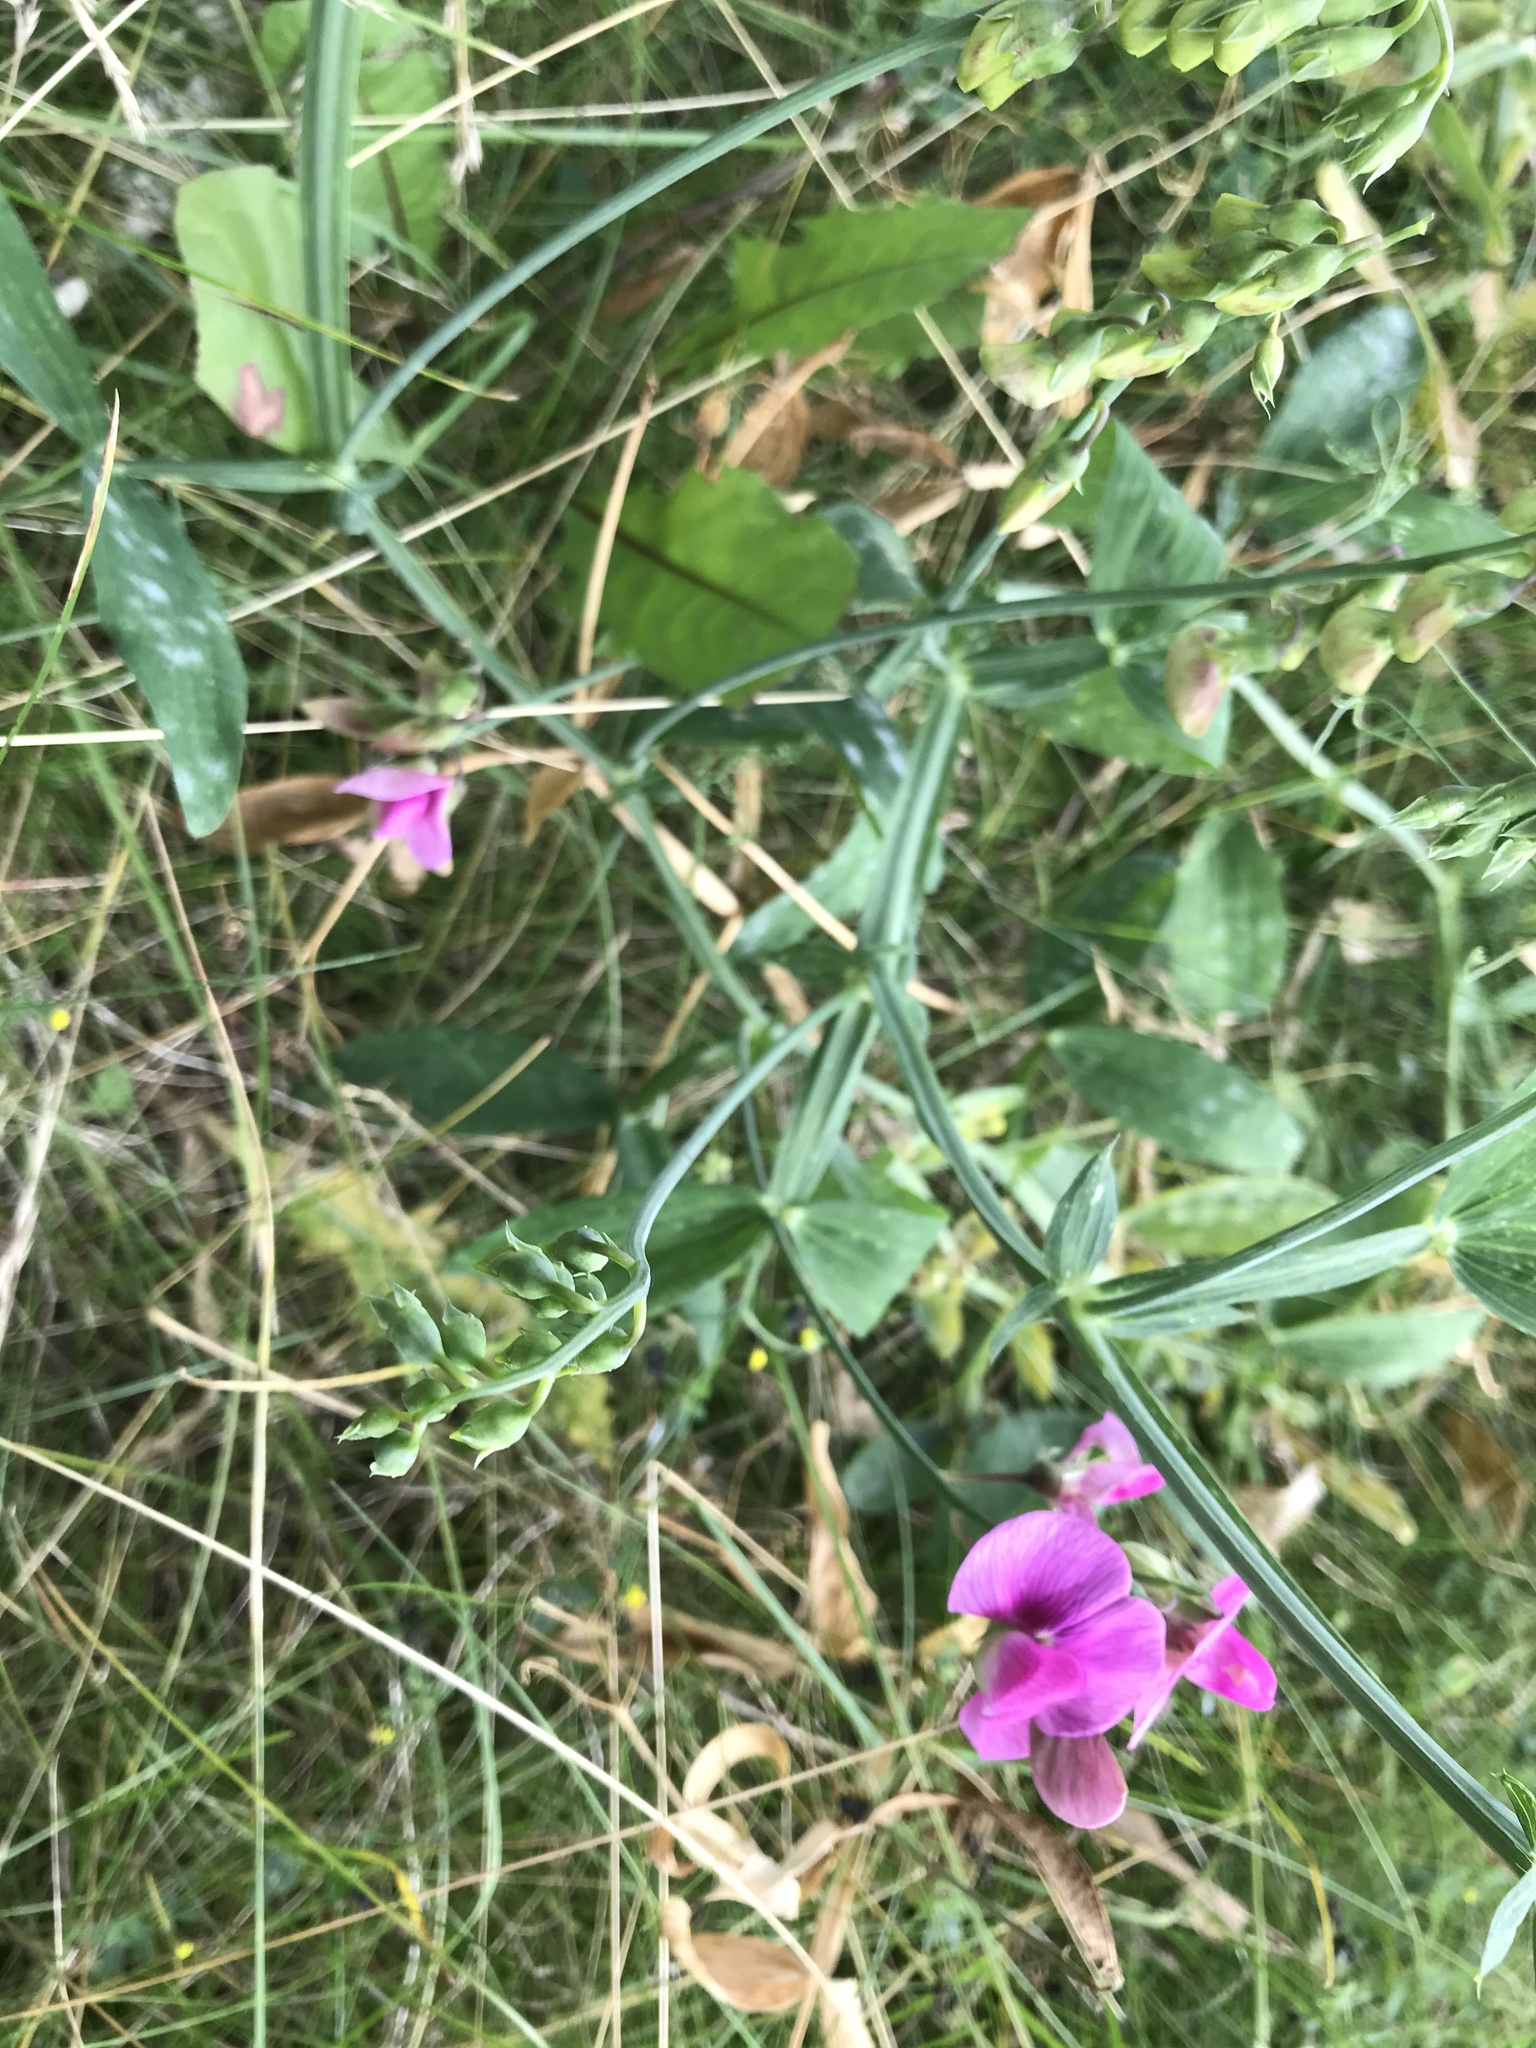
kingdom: Plantae
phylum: Tracheophyta
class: Magnoliopsida
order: Fabales
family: Fabaceae
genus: Lathyrus
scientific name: Lathyrus latifolius
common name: Perennial pea
